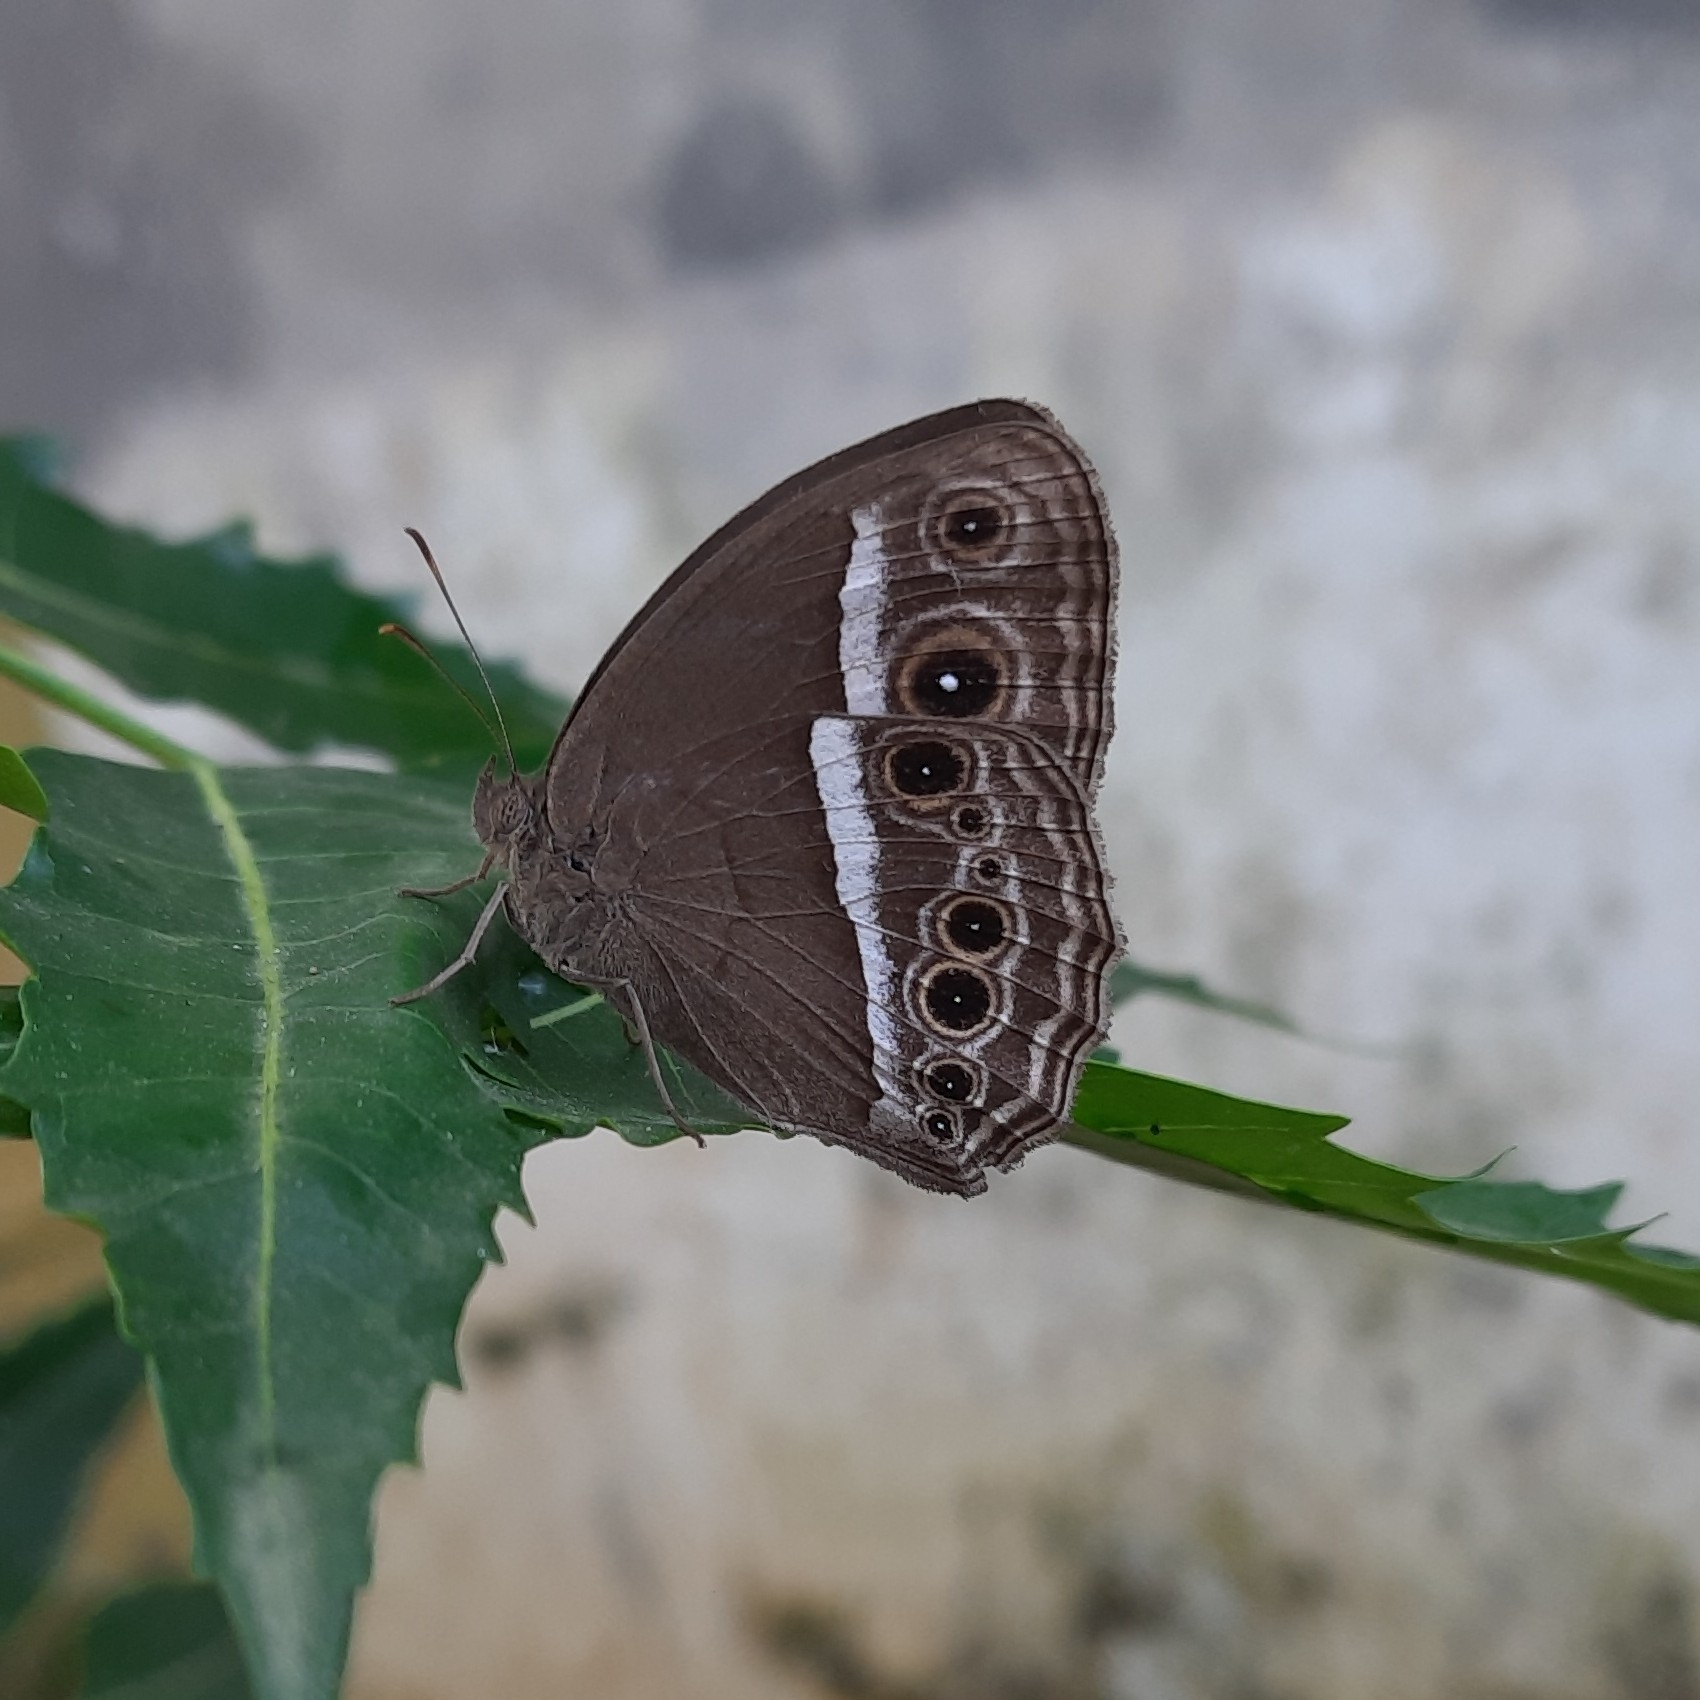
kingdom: Animalia
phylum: Arthropoda
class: Insecta
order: Lepidoptera
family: Nymphalidae
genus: Mycalesis
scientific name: Mycalesis mineus
